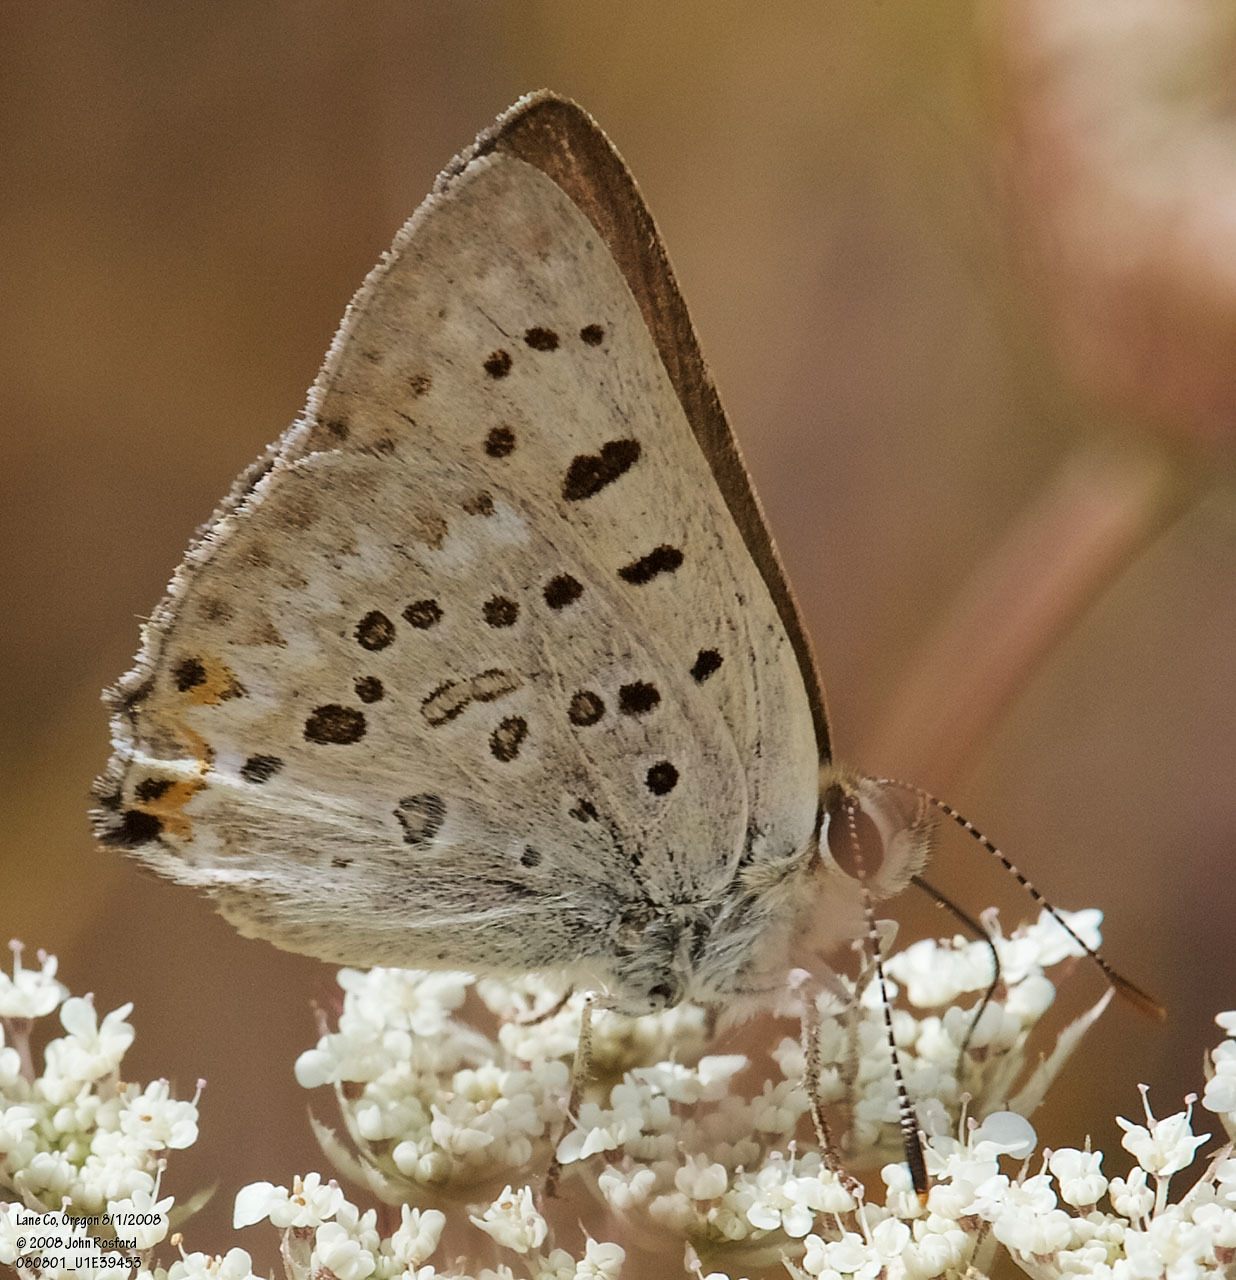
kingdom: Animalia
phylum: Arthropoda
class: Insecta
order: Lepidoptera
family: Lycaenidae
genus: Tharsalea
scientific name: Tharsalea xanthoides
